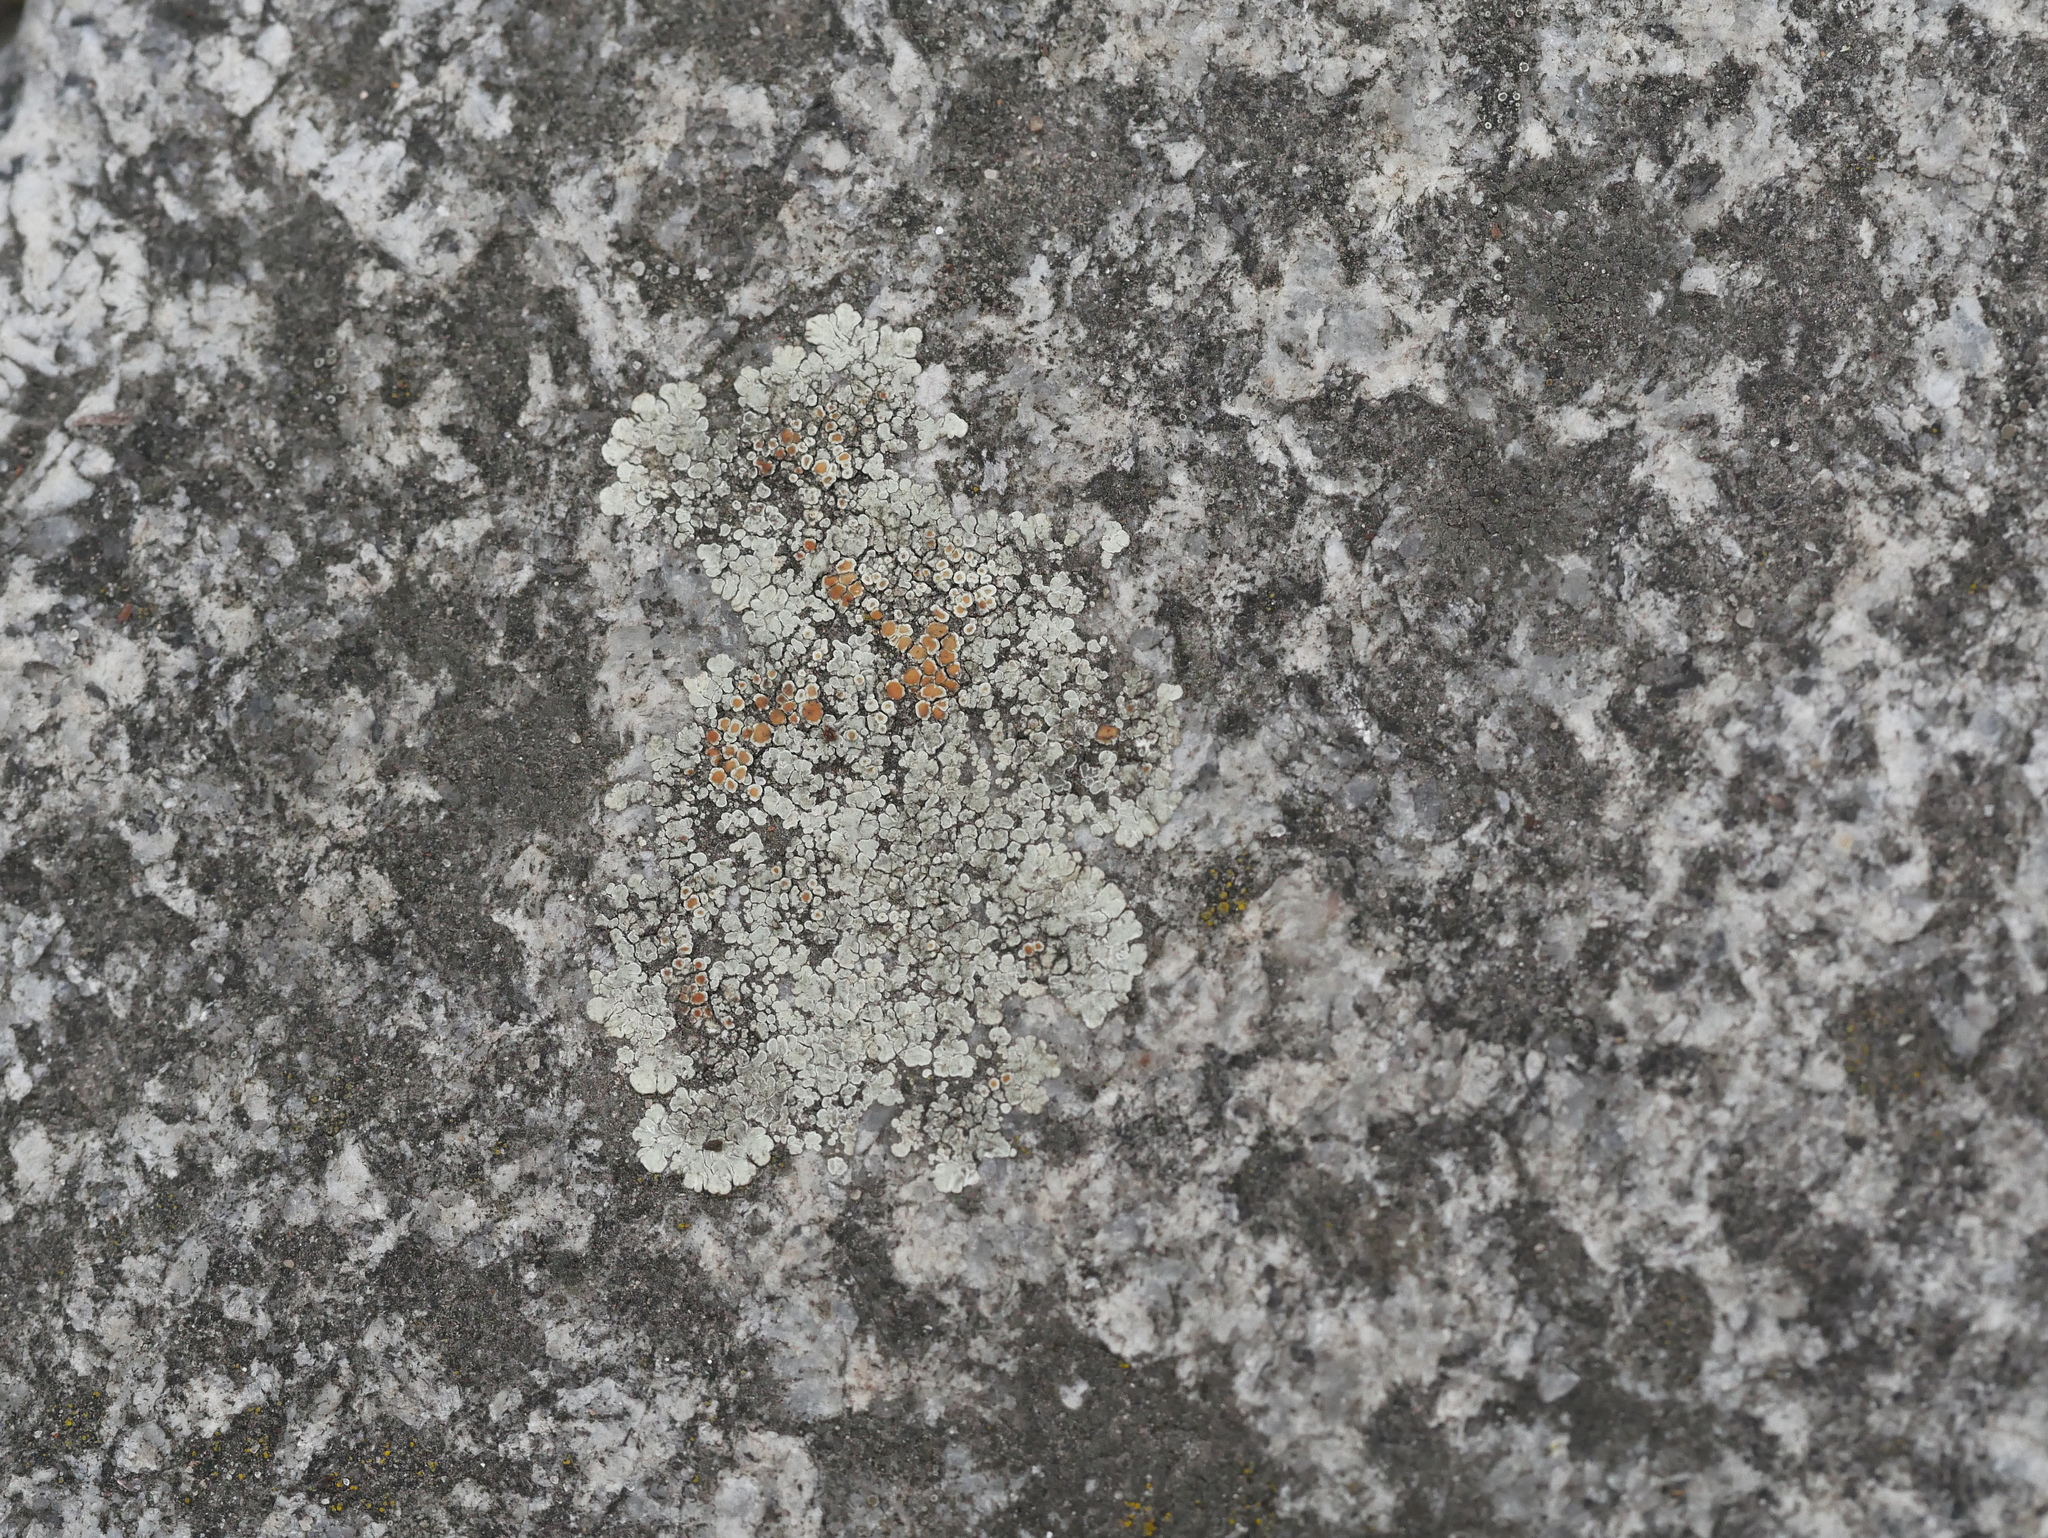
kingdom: Fungi
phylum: Ascomycota
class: Lecanoromycetes
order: Lecanorales
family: Lecanoraceae
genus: Protoparmeliopsis
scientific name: Protoparmeliopsis muralis
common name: Stonewall rim lichen
